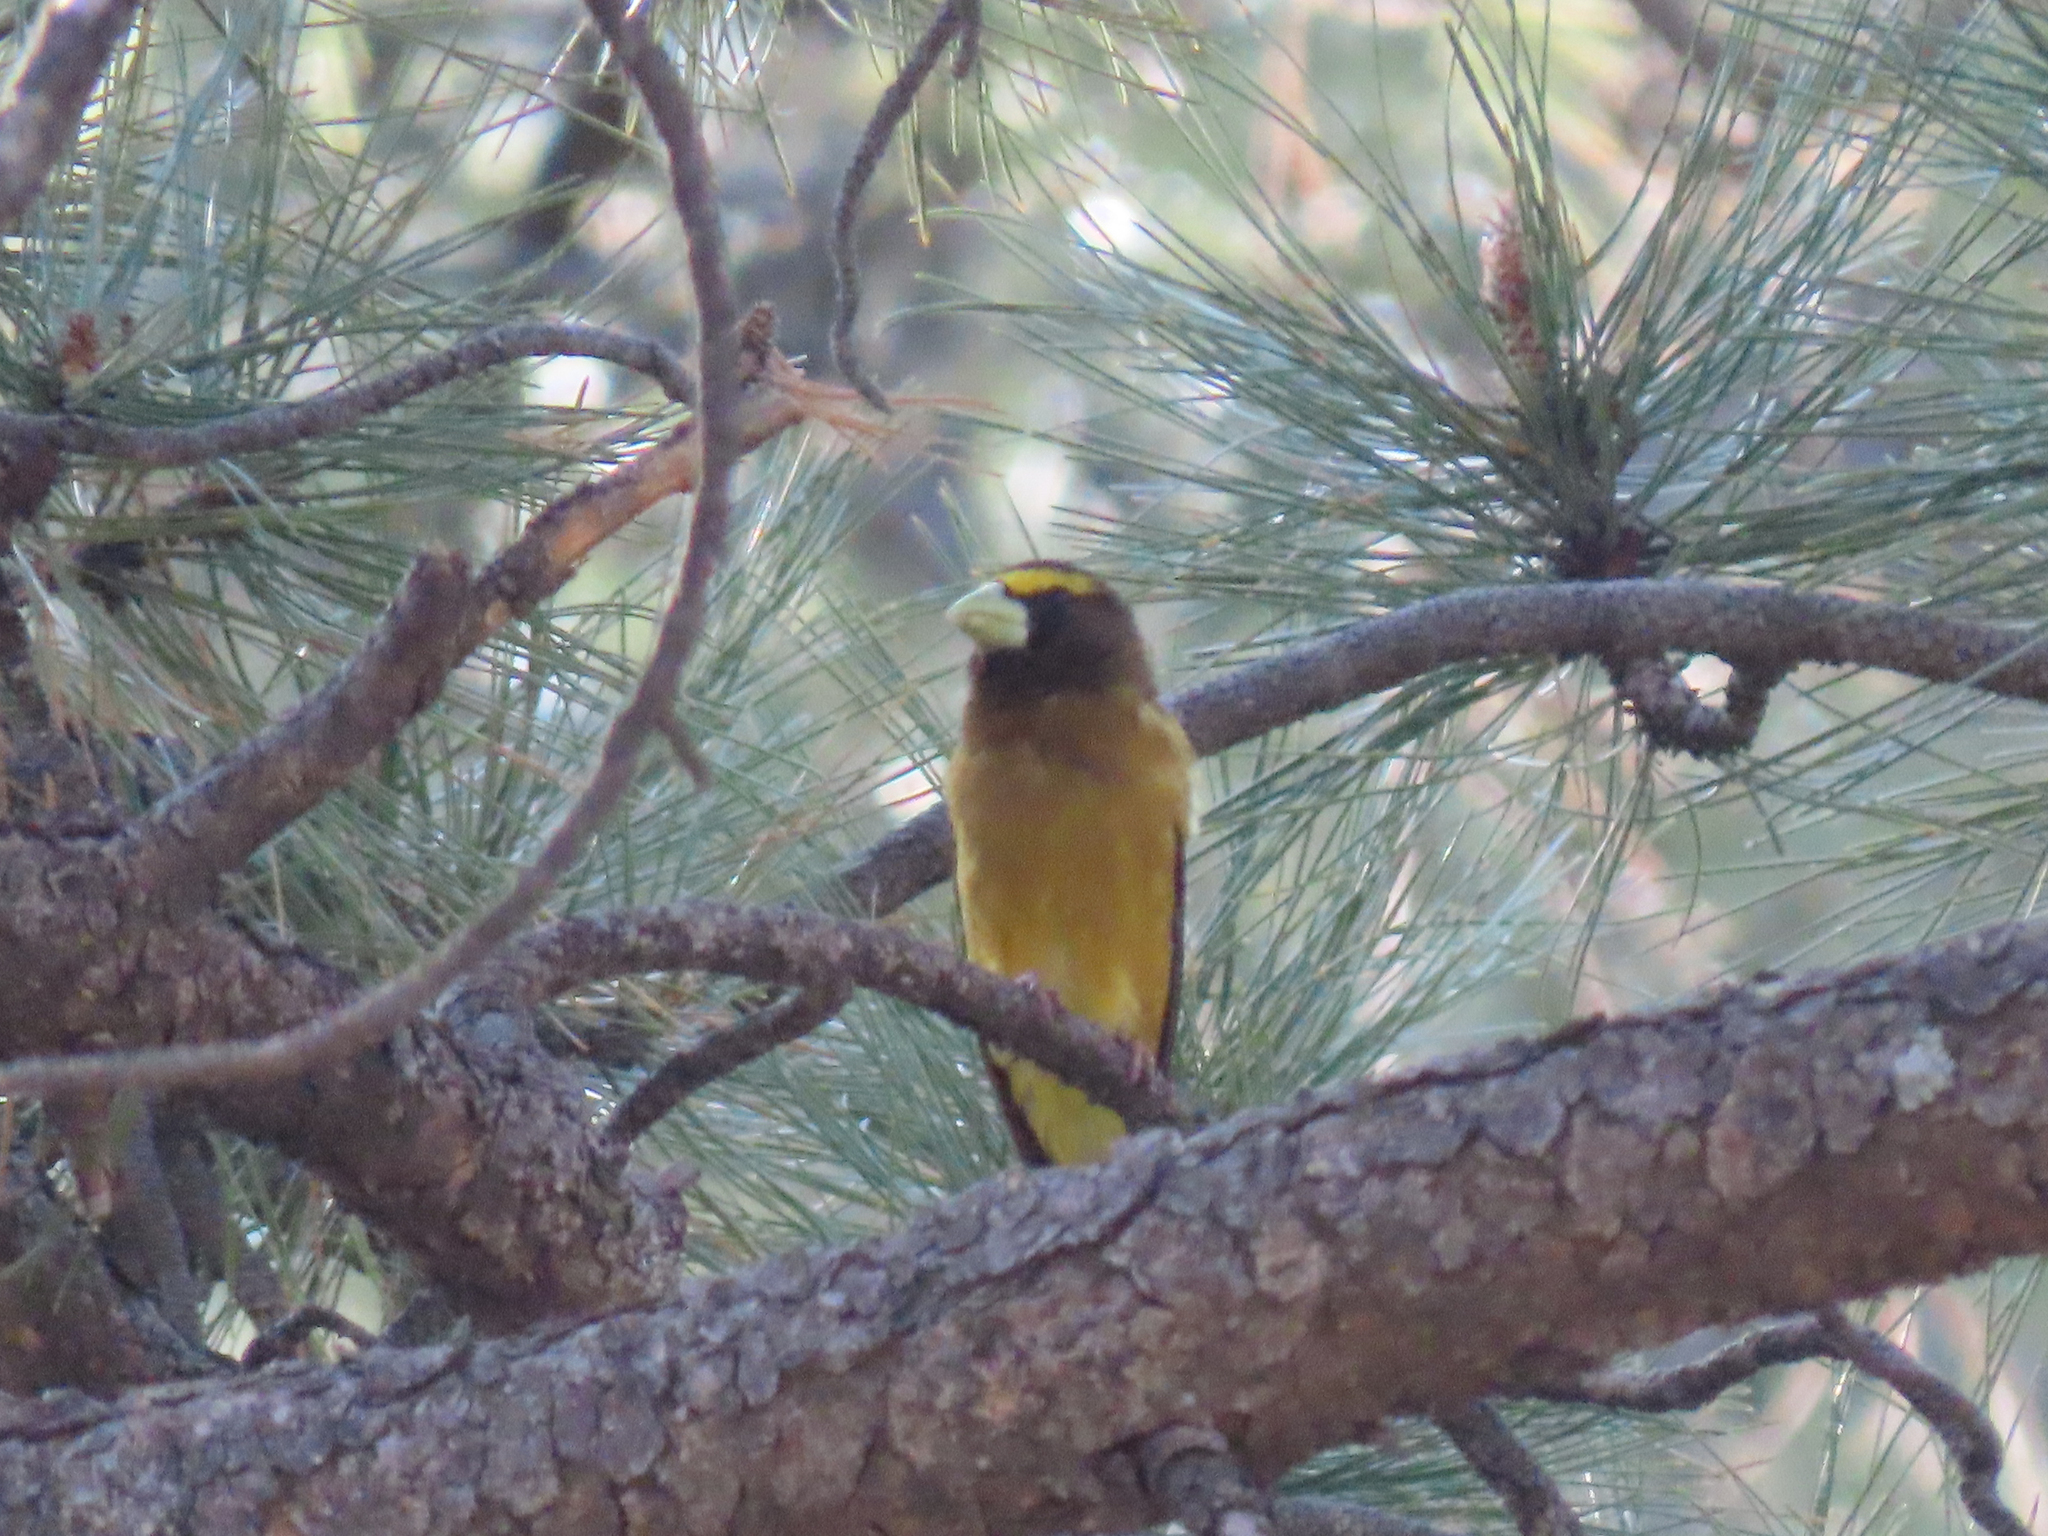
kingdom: Animalia
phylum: Chordata
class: Aves
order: Passeriformes
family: Fringillidae
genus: Hesperiphona
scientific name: Hesperiphona vespertina
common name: Evening grosbeak
